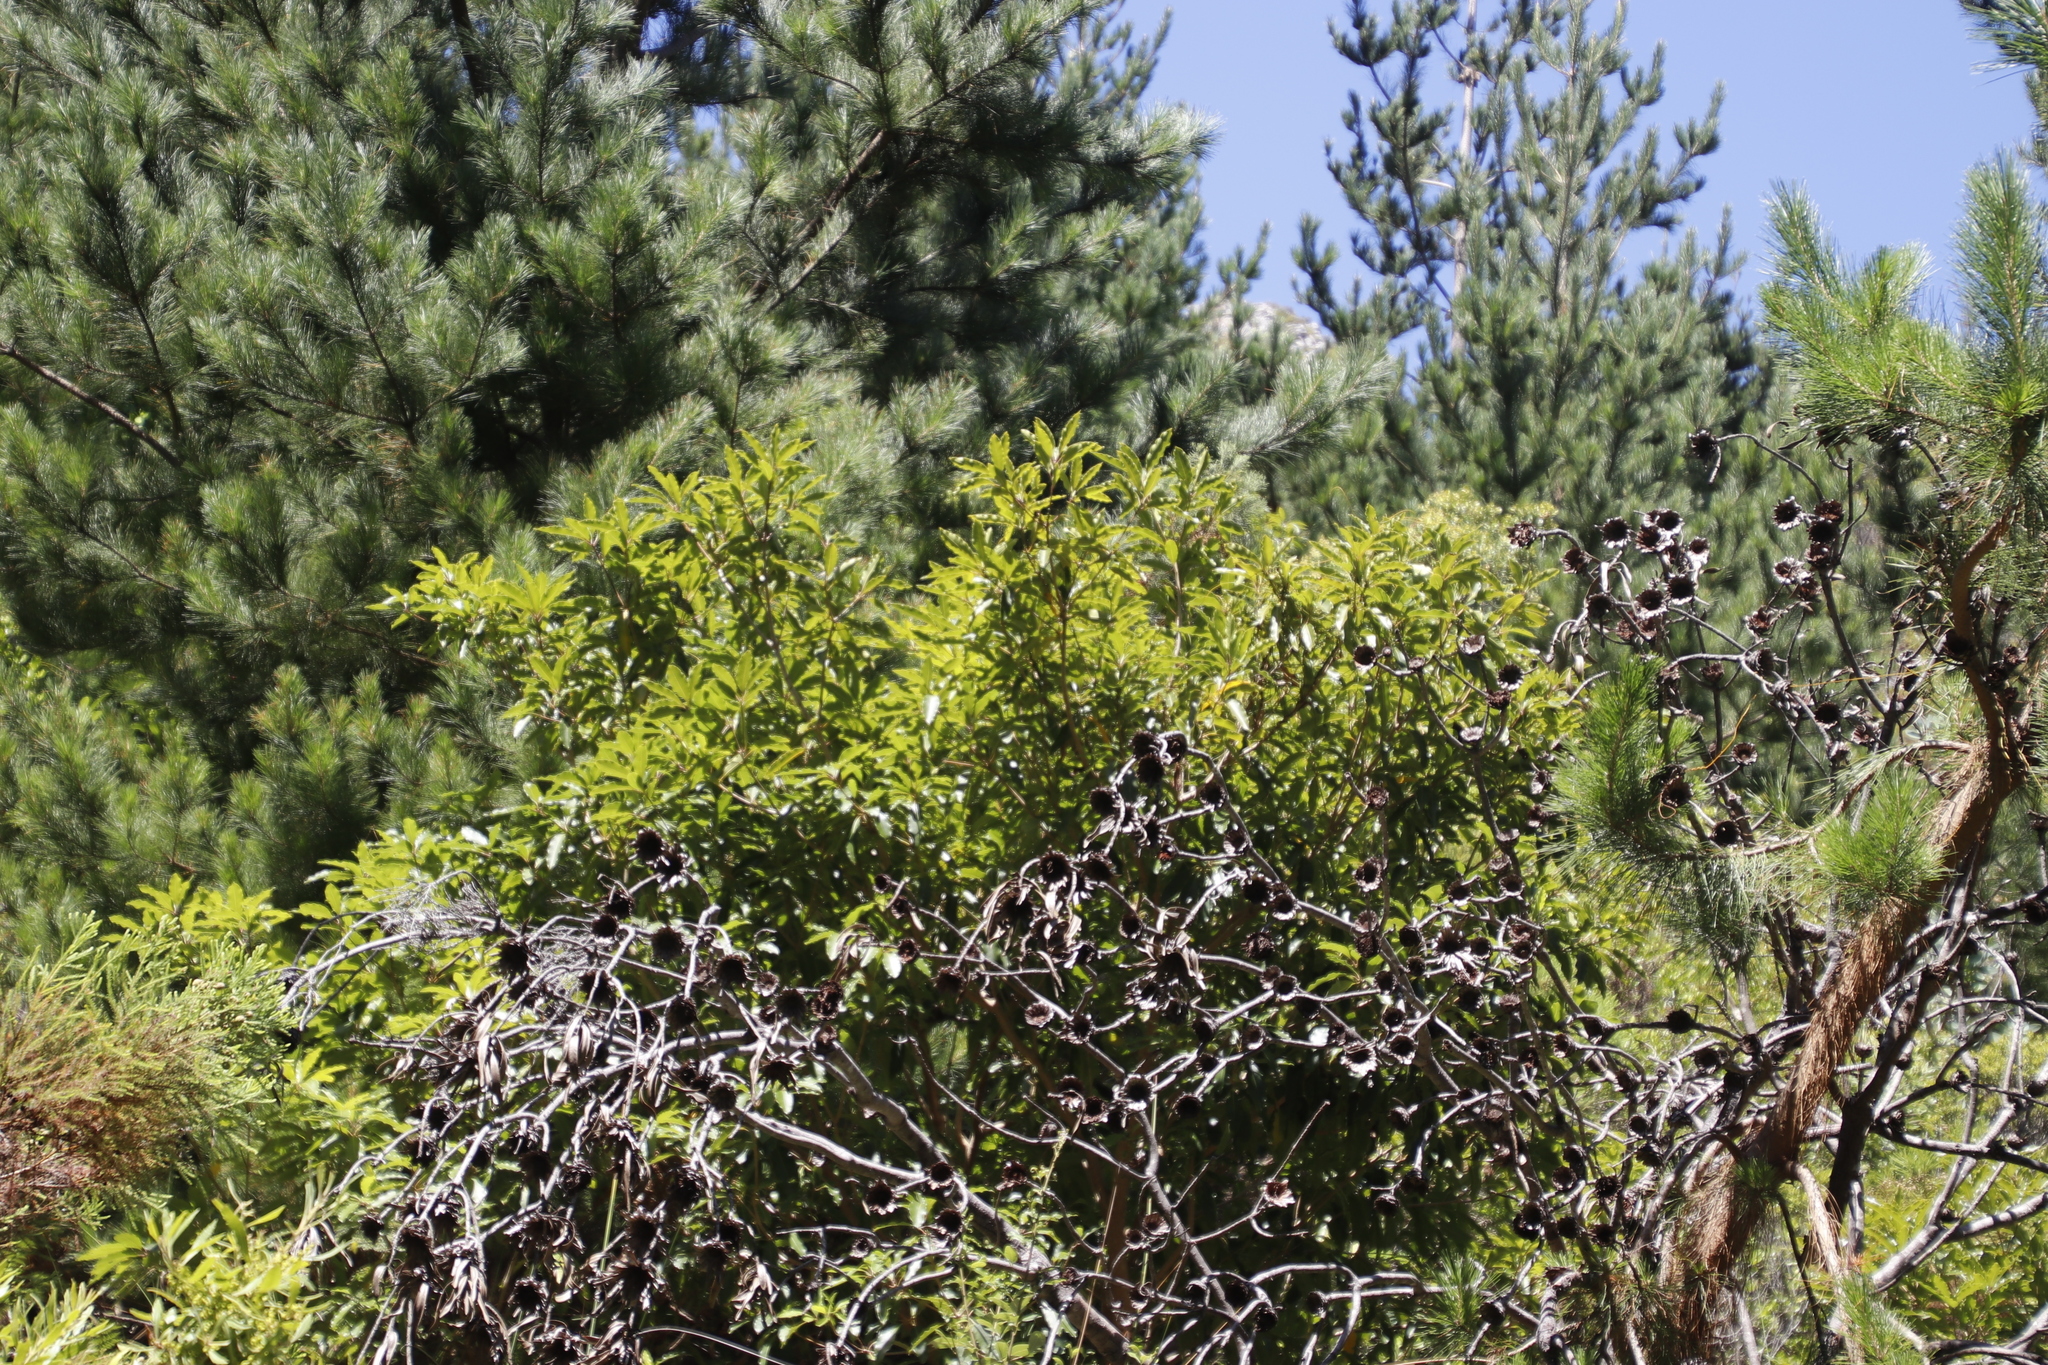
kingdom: Plantae
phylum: Tracheophyta
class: Magnoliopsida
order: Apiales
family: Pittosporaceae
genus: Pittosporum
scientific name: Pittosporum undulatum
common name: Australian cheesewood
